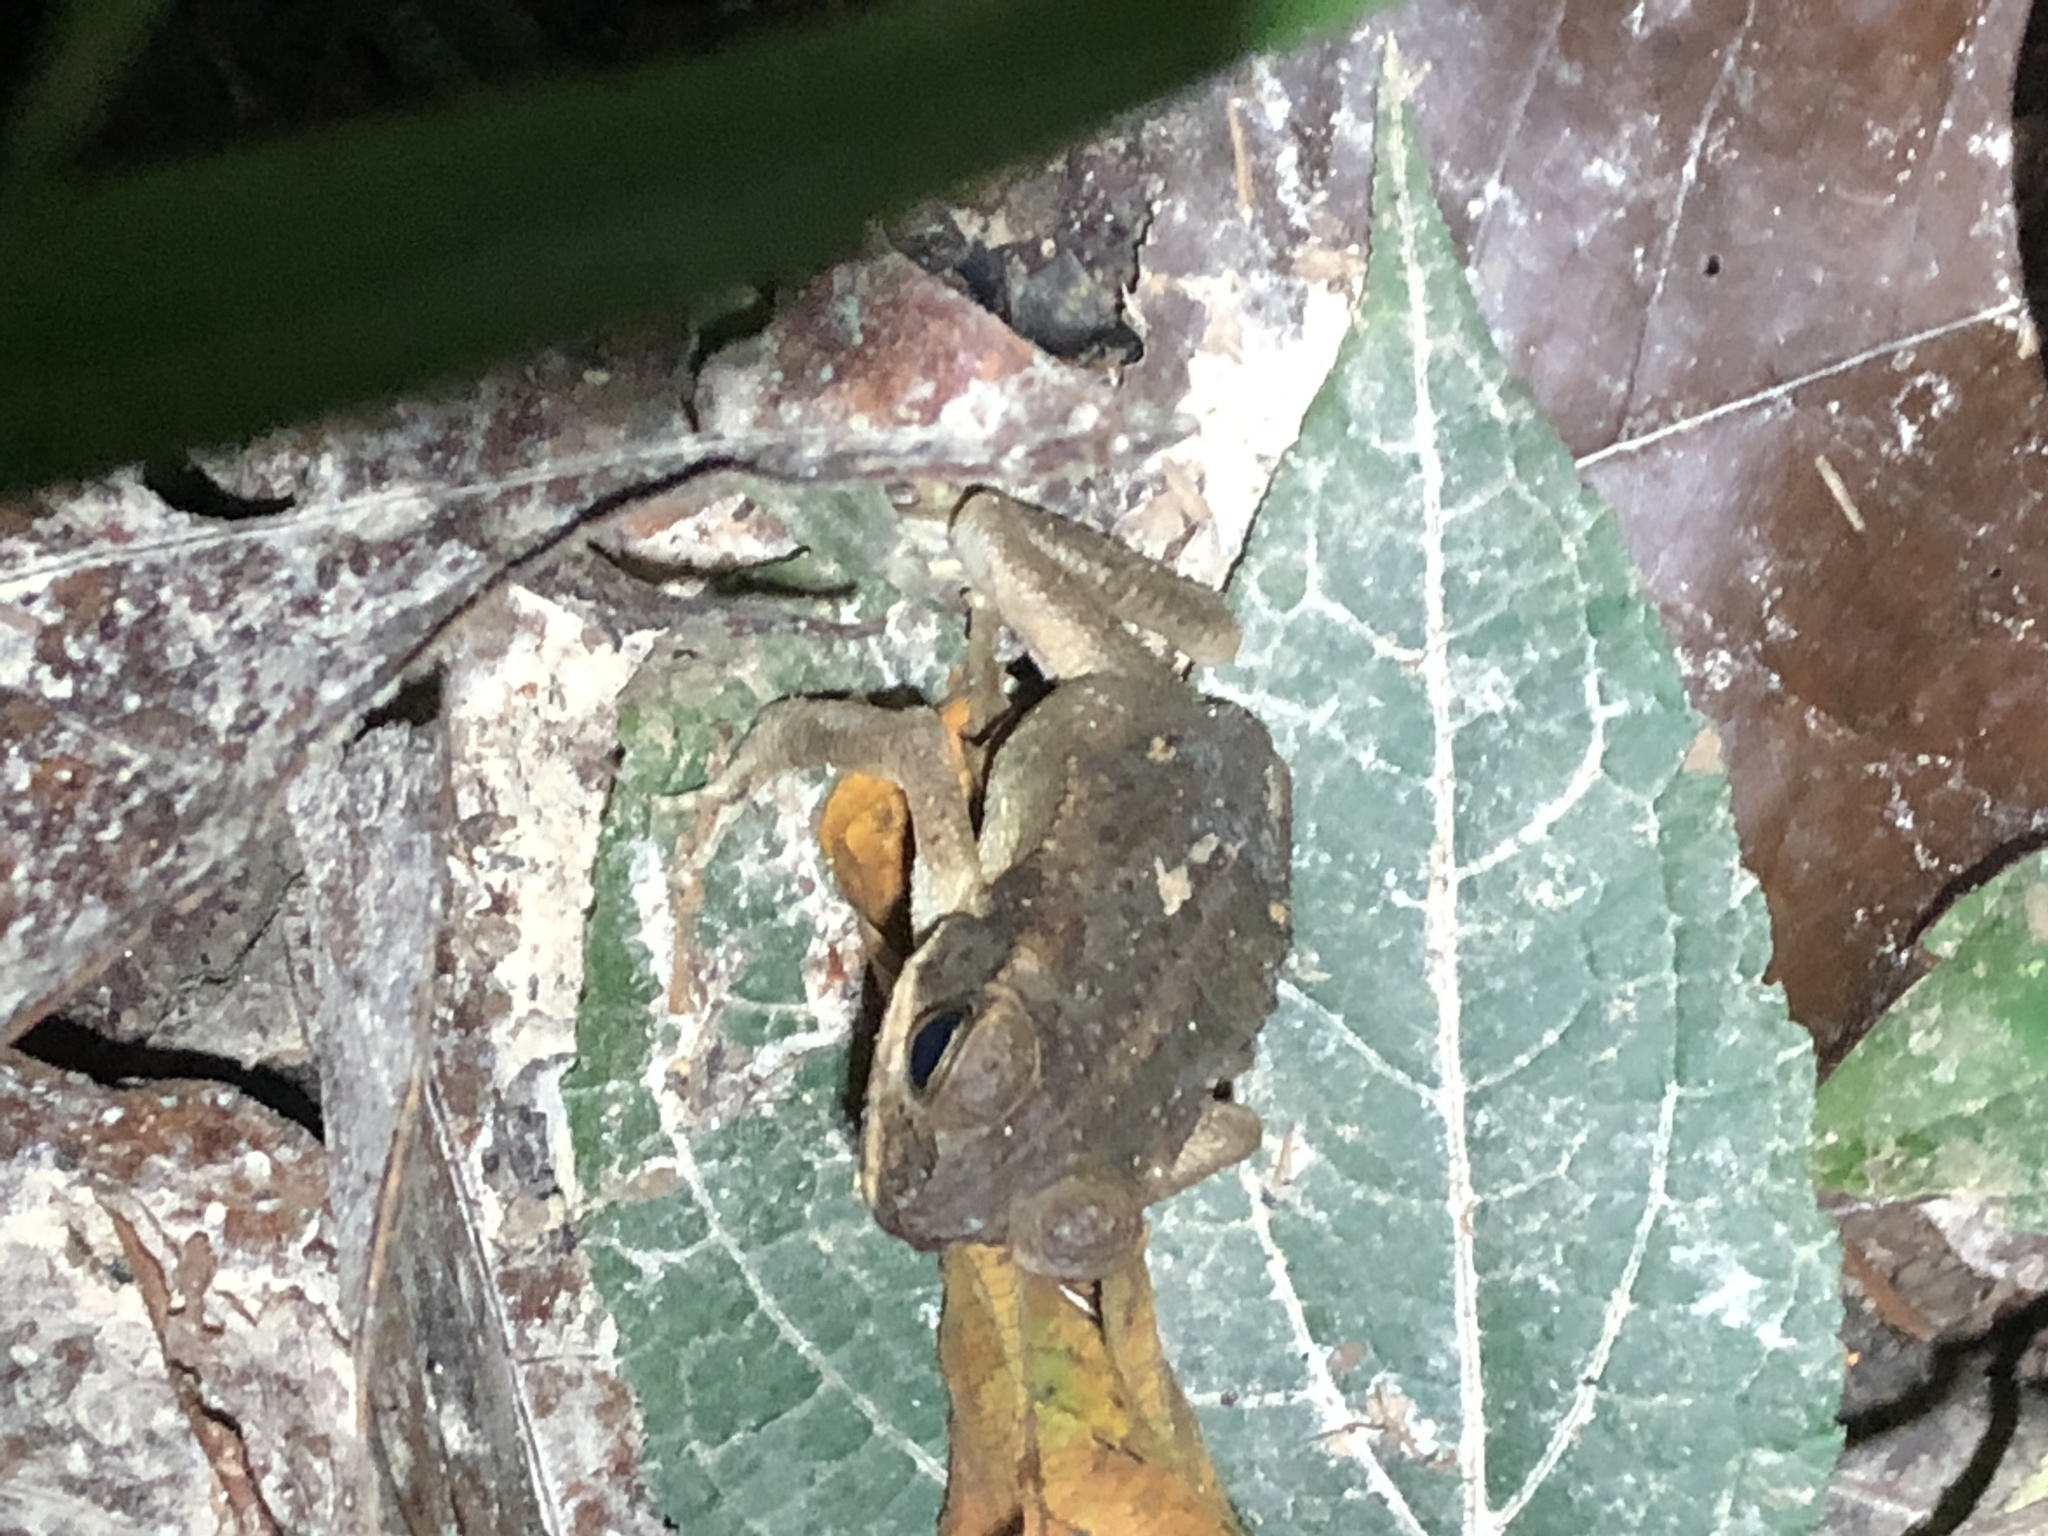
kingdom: Animalia
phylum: Chordata
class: Amphibia
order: Anura
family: Bufonidae
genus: Rhinella
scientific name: Rhinella marina
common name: Cane toad
